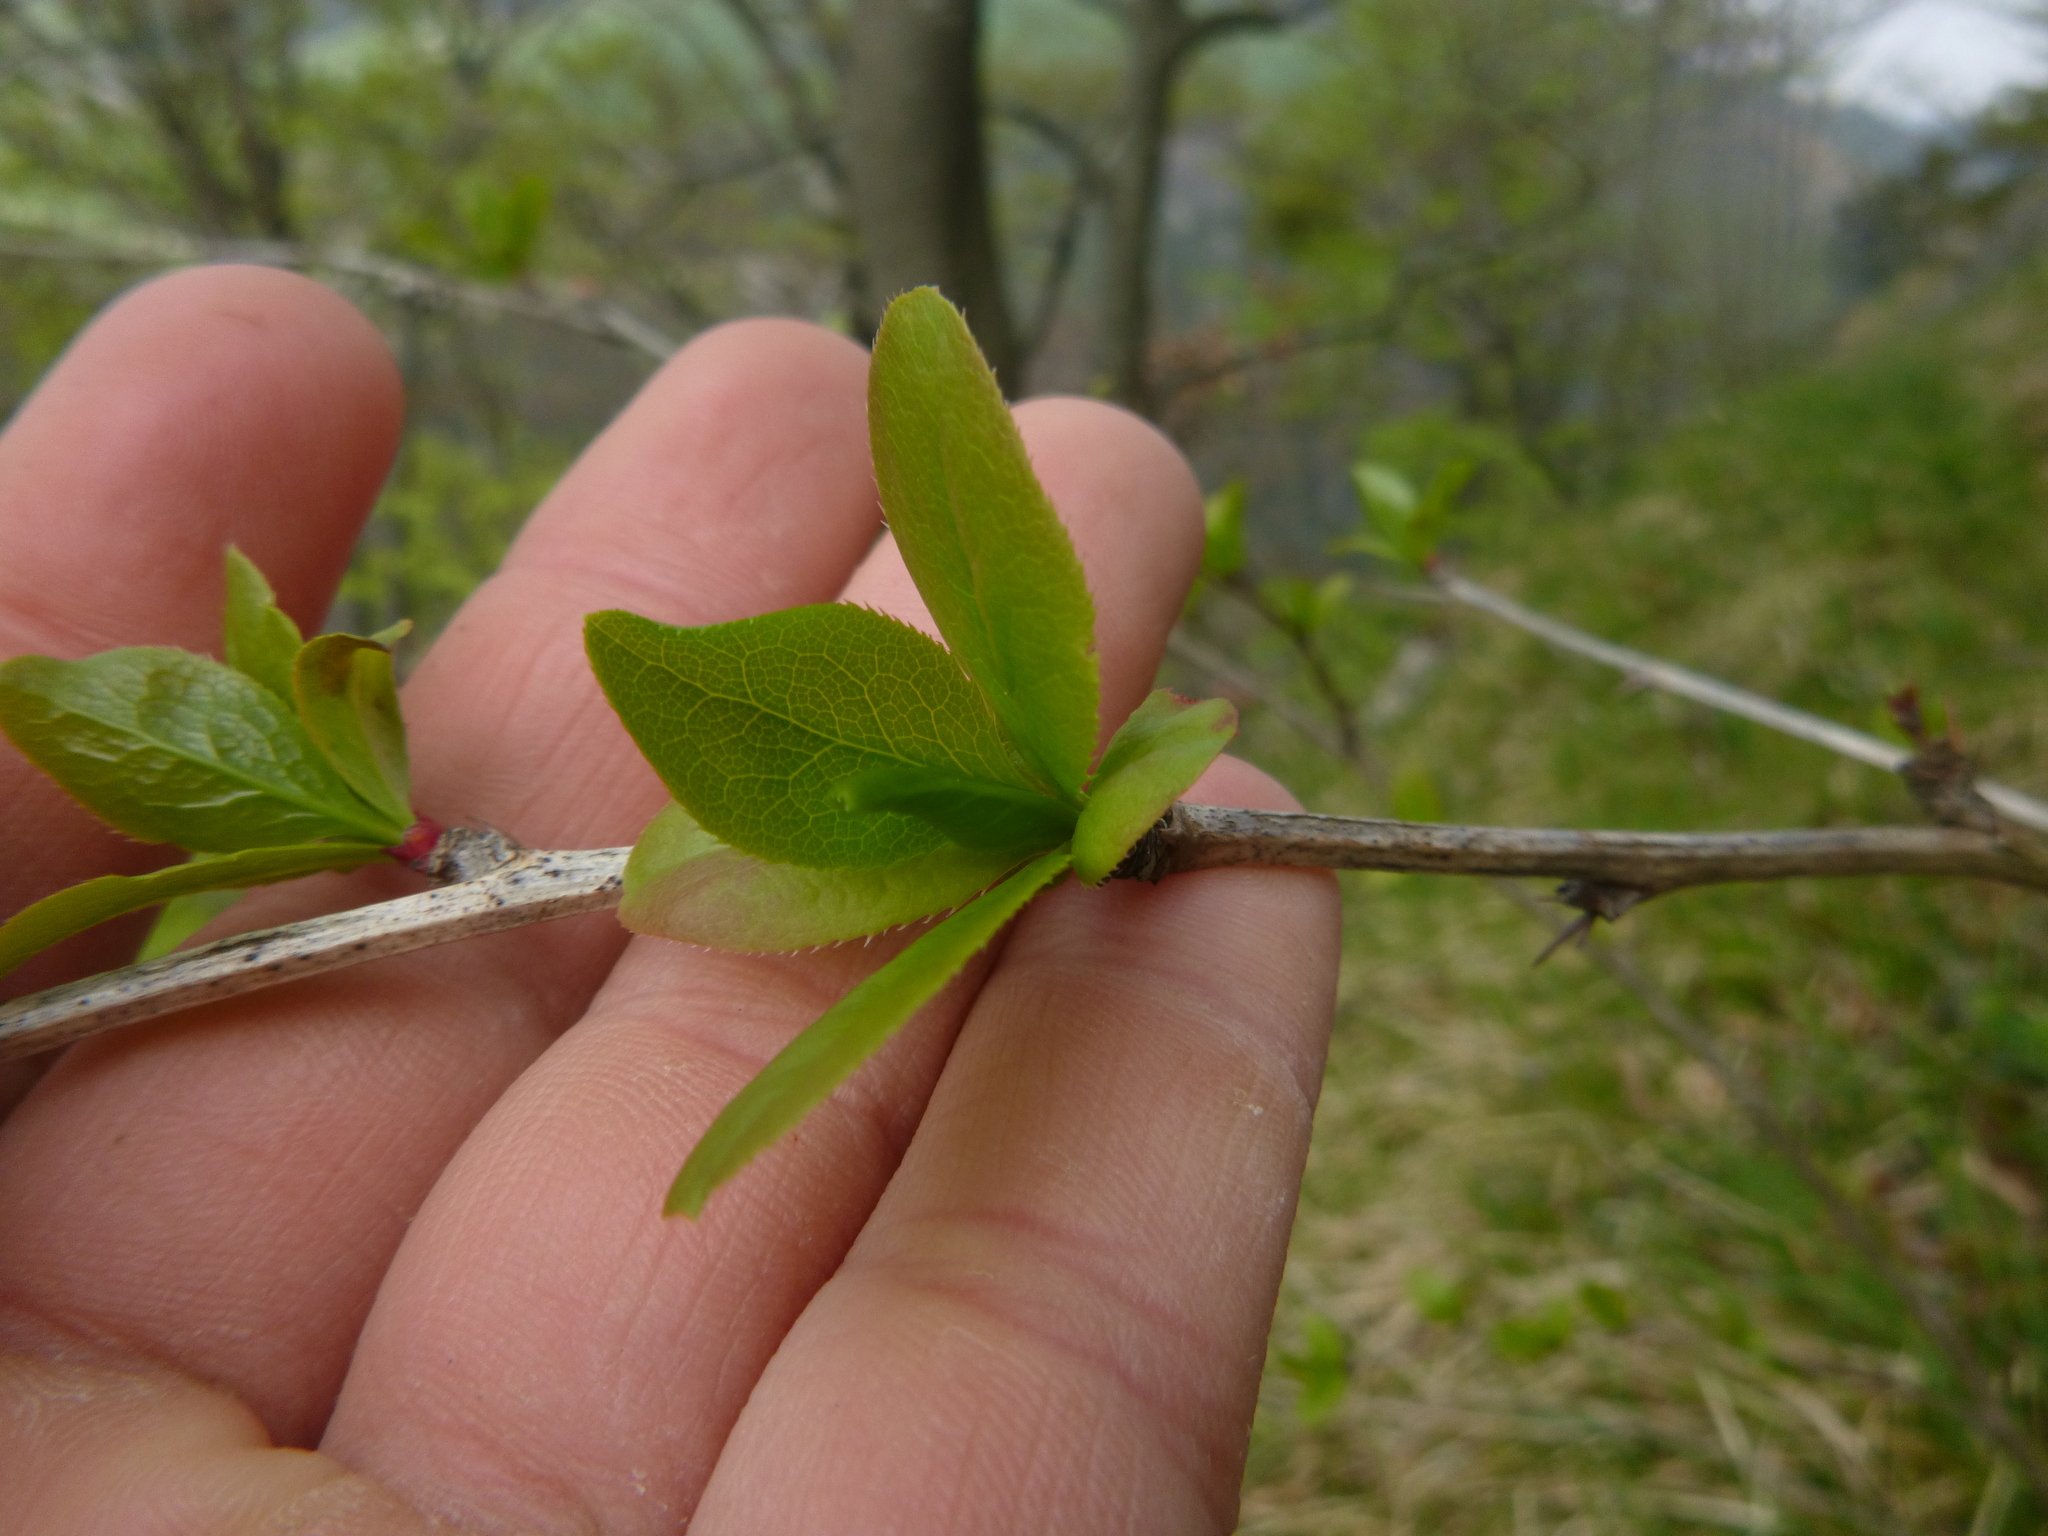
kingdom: Plantae
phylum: Tracheophyta
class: Magnoliopsida
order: Ranunculales
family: Berberidaceae
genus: Berberis
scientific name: Berberis vulgaris
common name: Barberry
